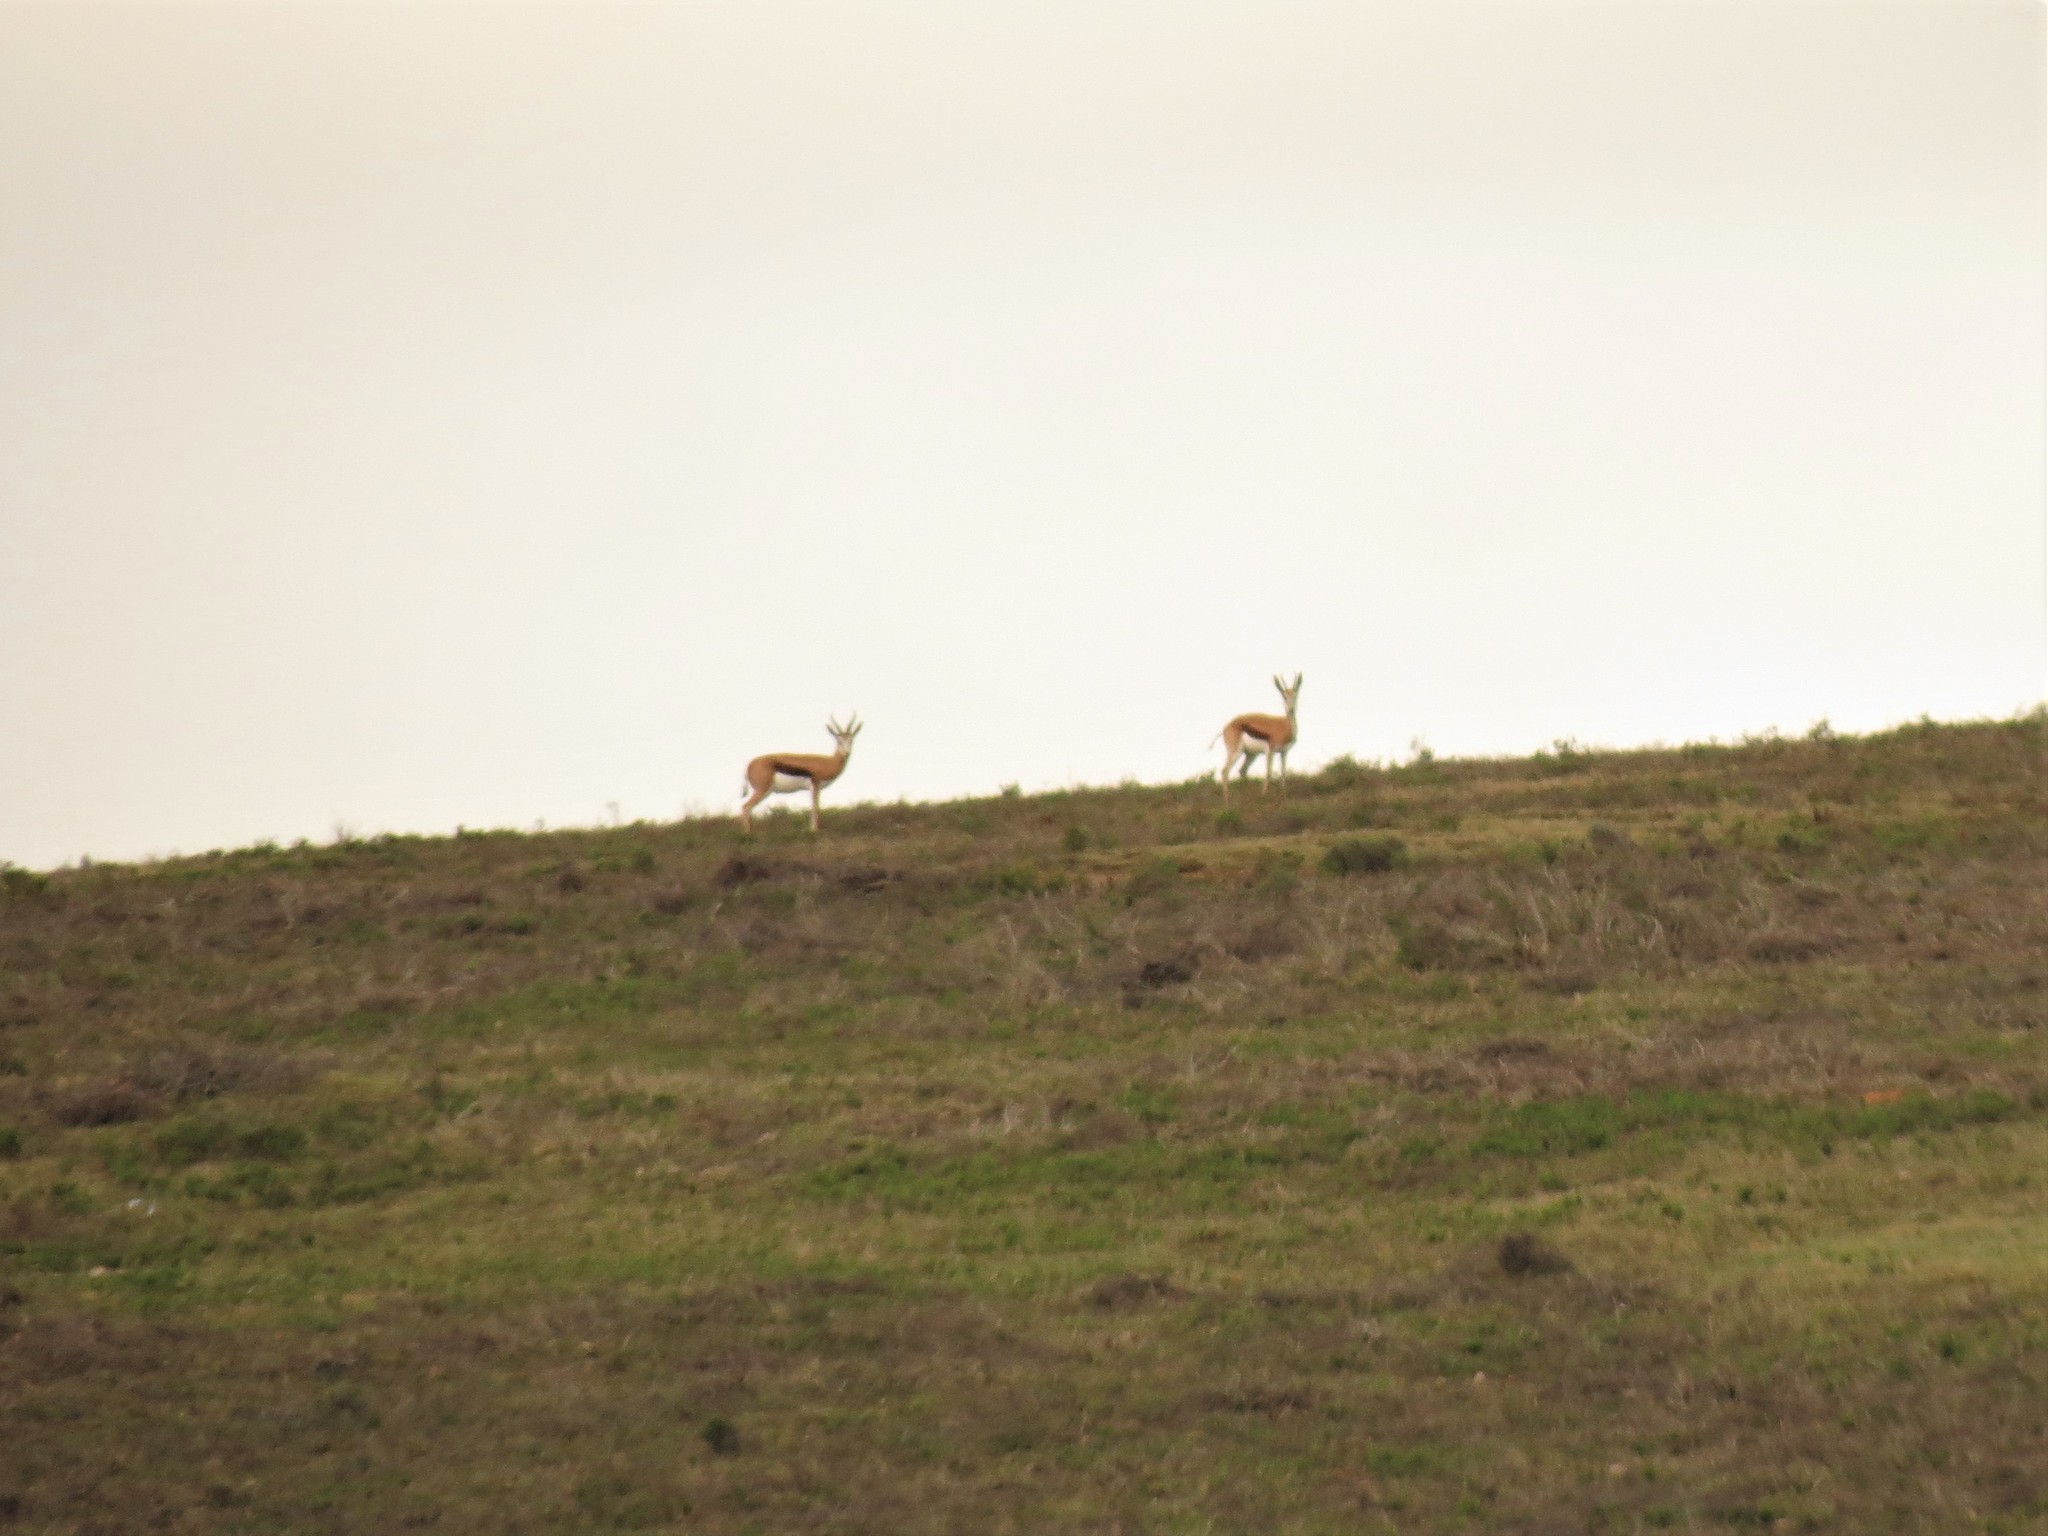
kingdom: Animalia
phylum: Chordata
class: Mammalia
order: Artiodactyla
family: Bovidae
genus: Antidorcas
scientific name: Antidorcas marsupialis
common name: Springbok
